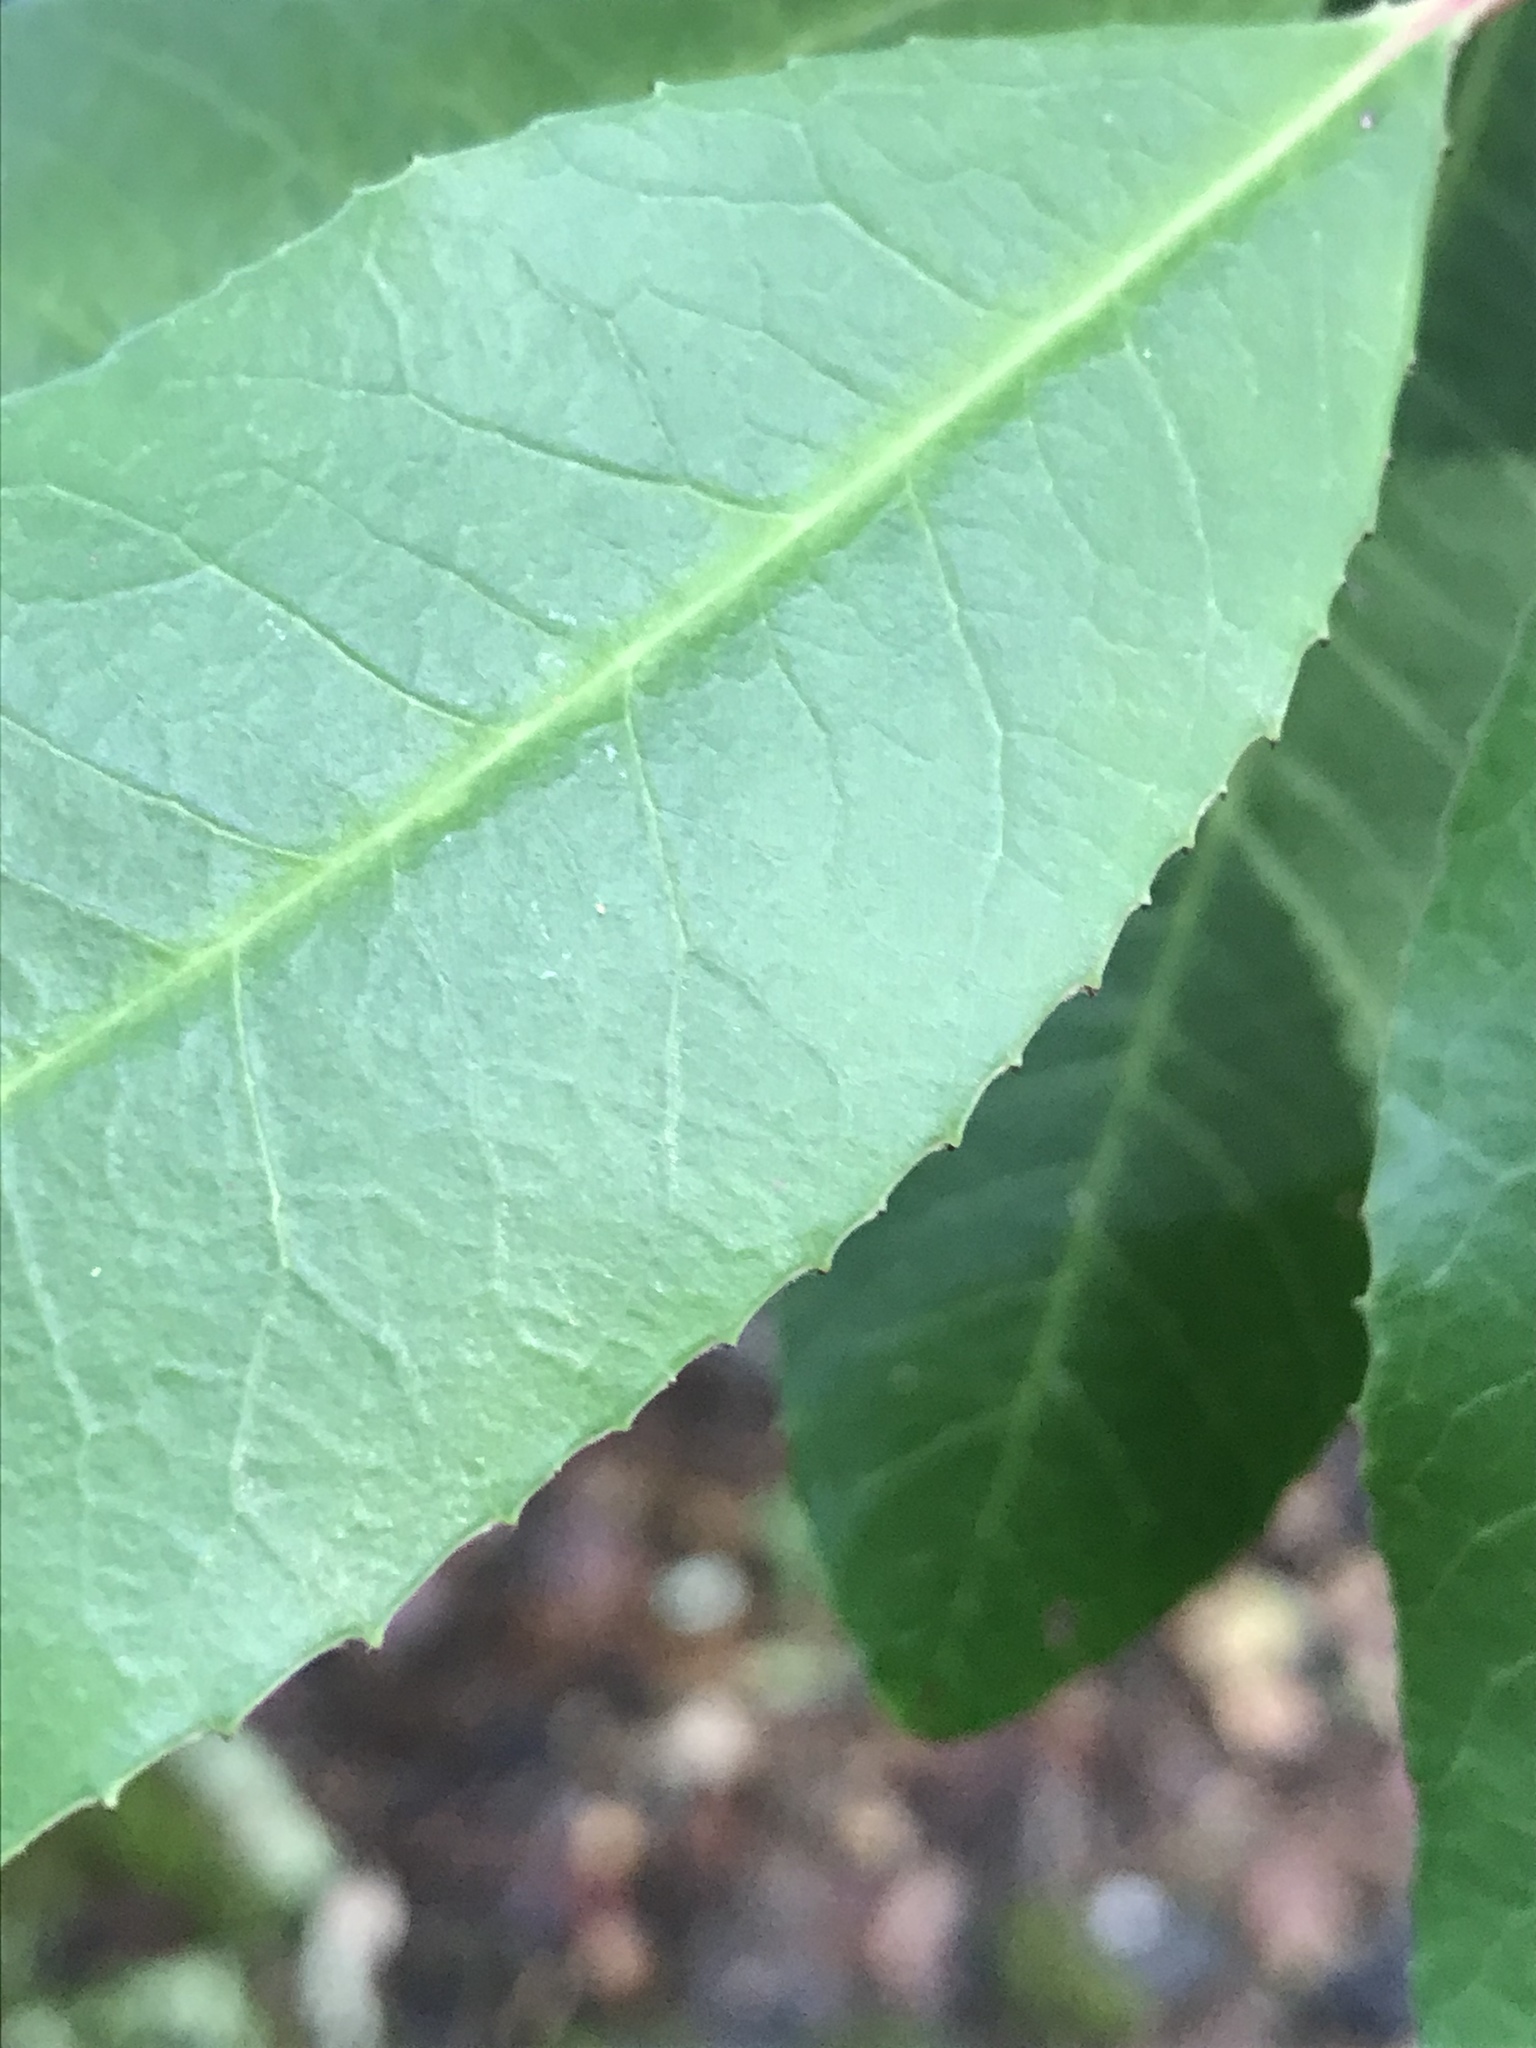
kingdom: Plantae
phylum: Tracheophyta
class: Magnoliopsida
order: Rosales
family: Rosaceae
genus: Heteromeles
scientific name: Heteromeles arbutifolia
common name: California-holly
